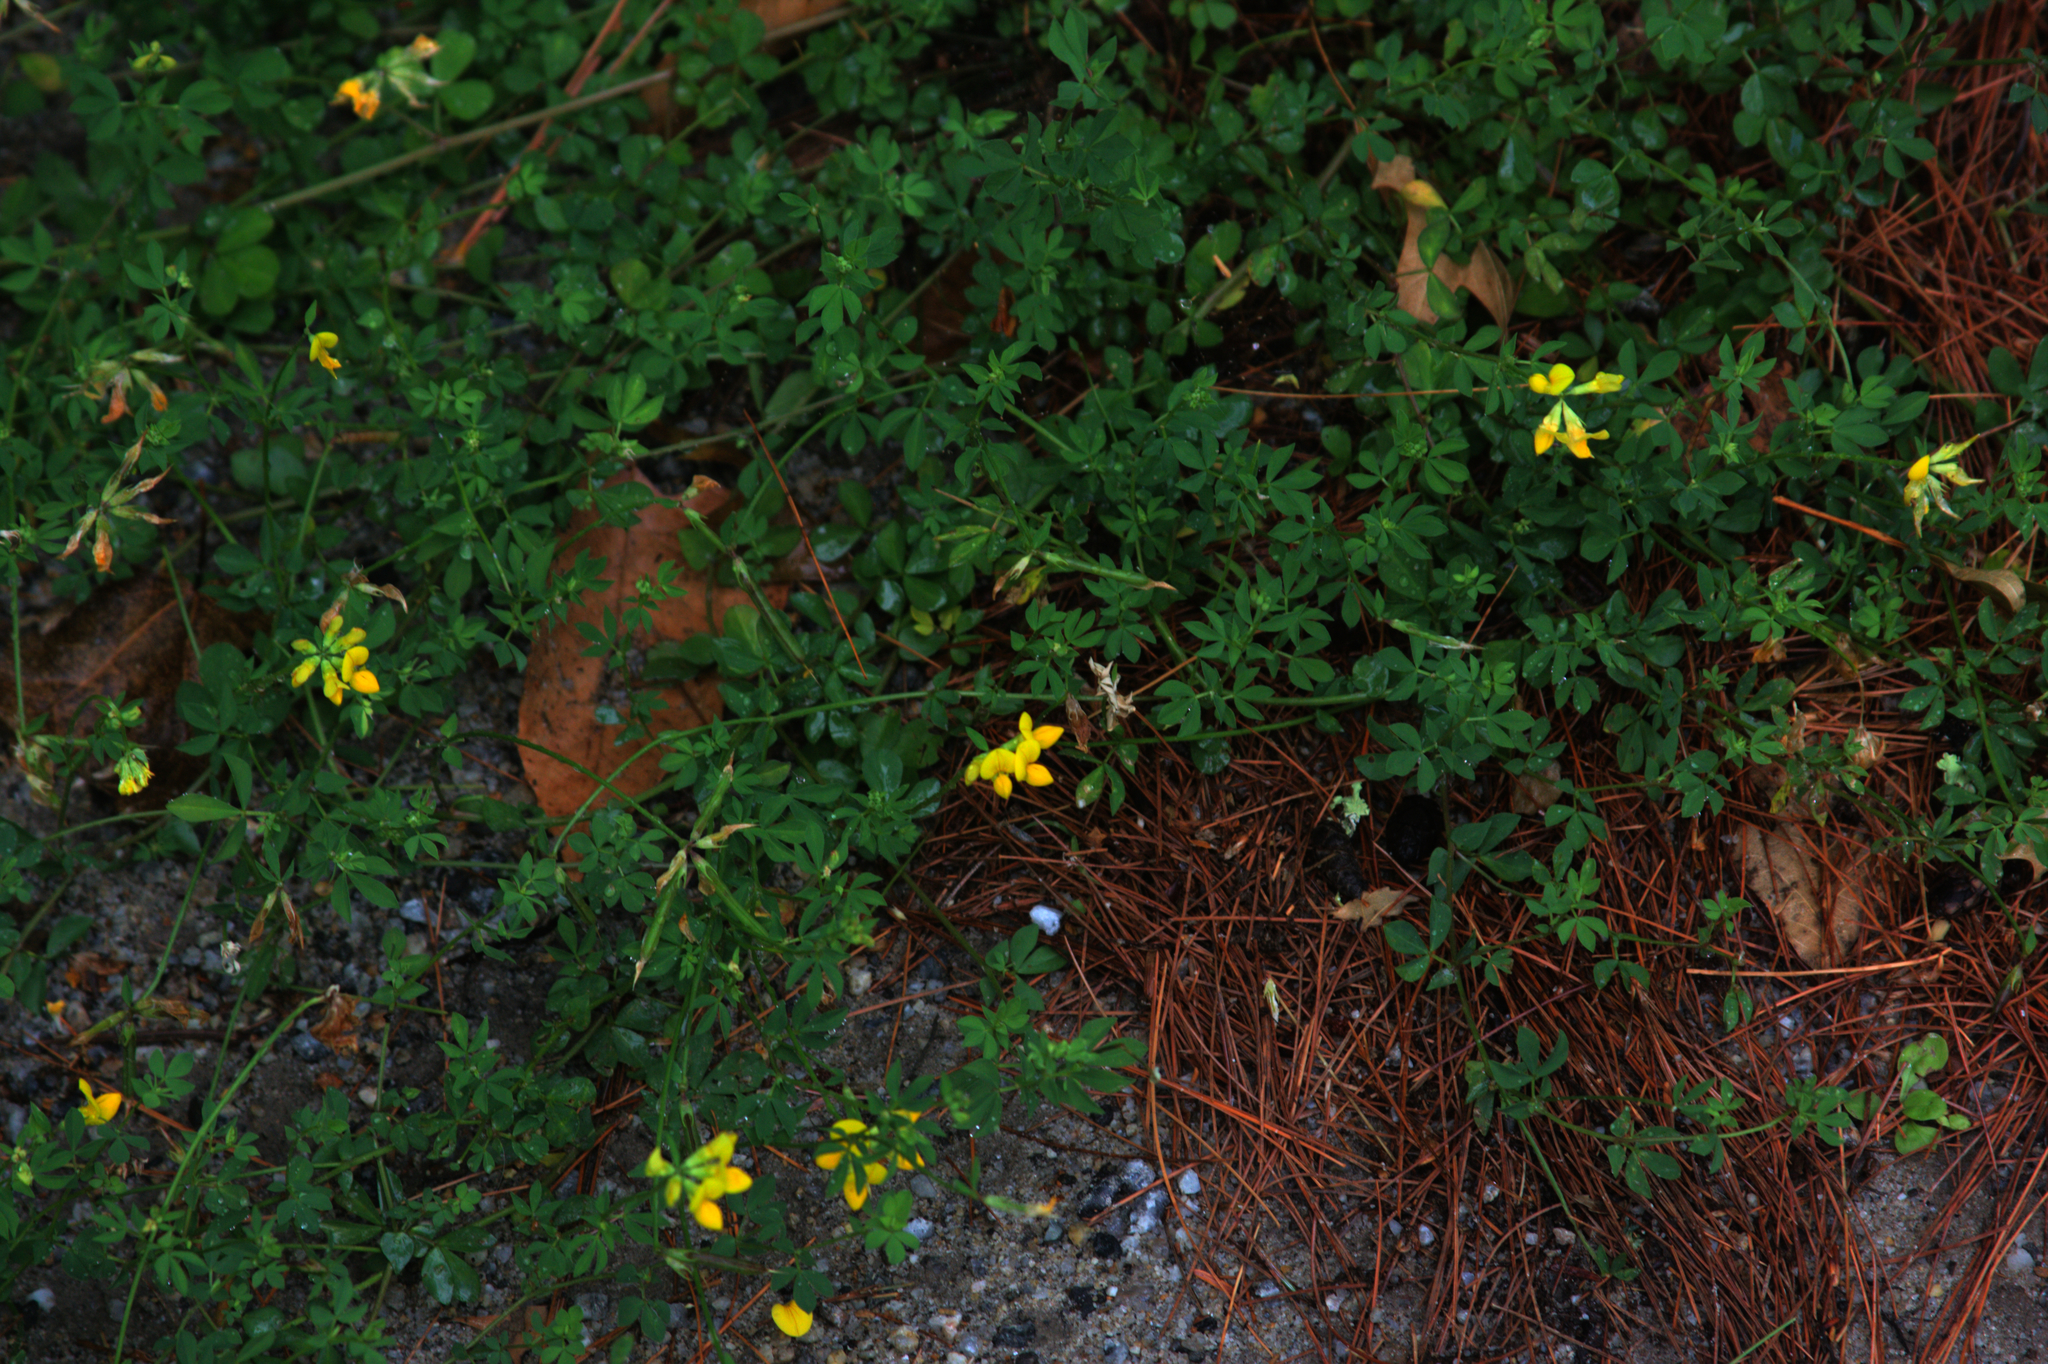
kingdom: Plantae
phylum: Tracheophyta
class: Magnoliopsida
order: Fabales
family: Fabaceae
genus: Lotus
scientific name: Lotus corniculatus
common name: Common bird's-foot-trefoil
